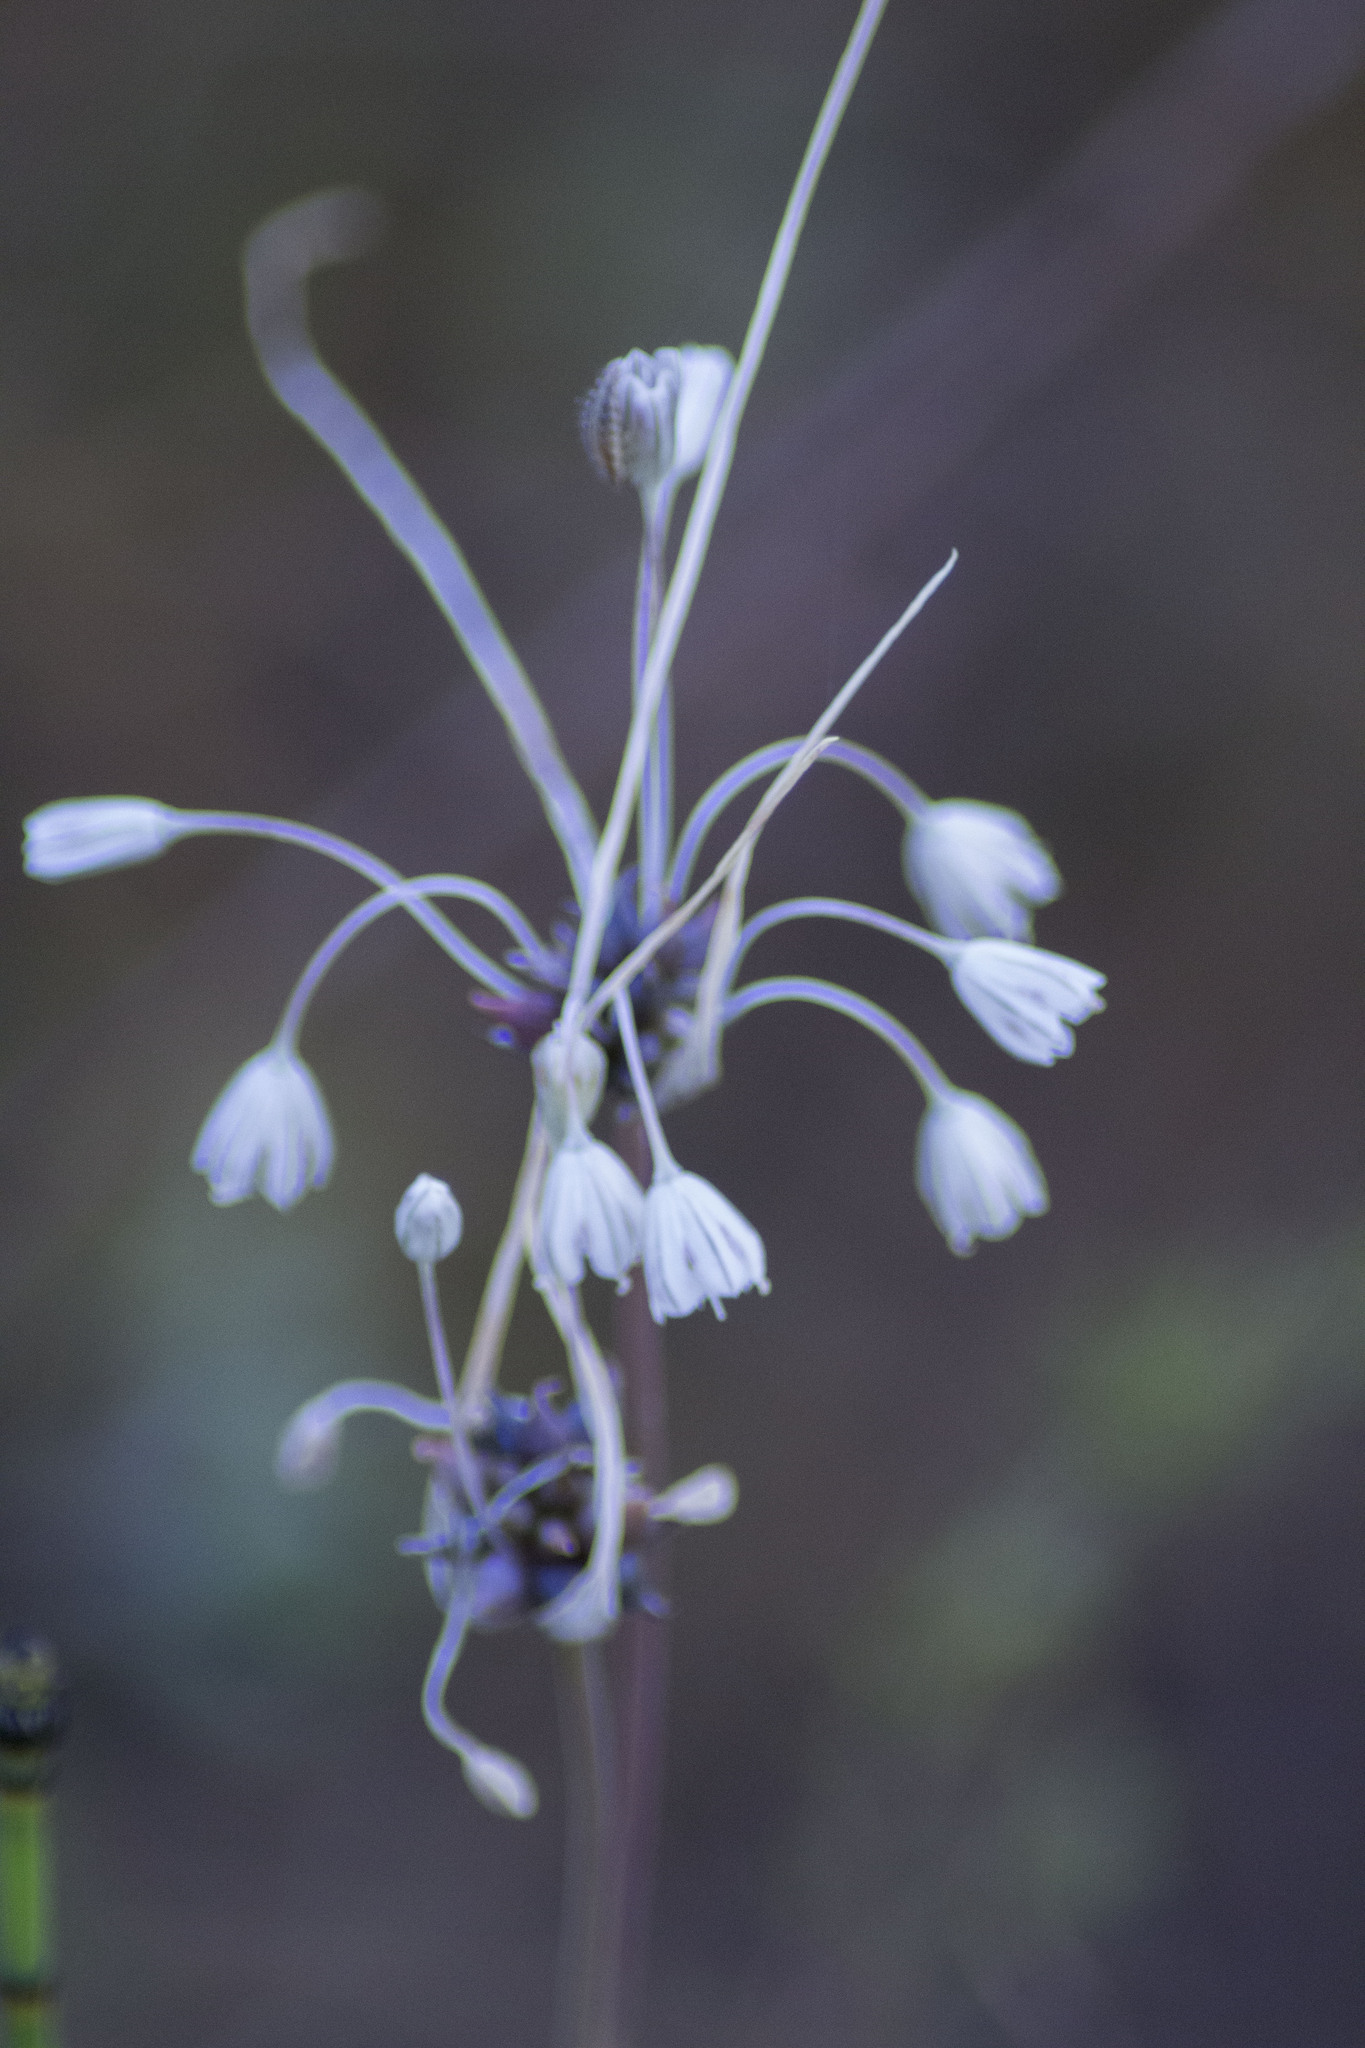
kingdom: Plantae
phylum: Tracheophyta
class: Liliopsida
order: Asparagales
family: Amaryllidaceae
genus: Allium
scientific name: Allium oleraceum
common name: Field garlic
